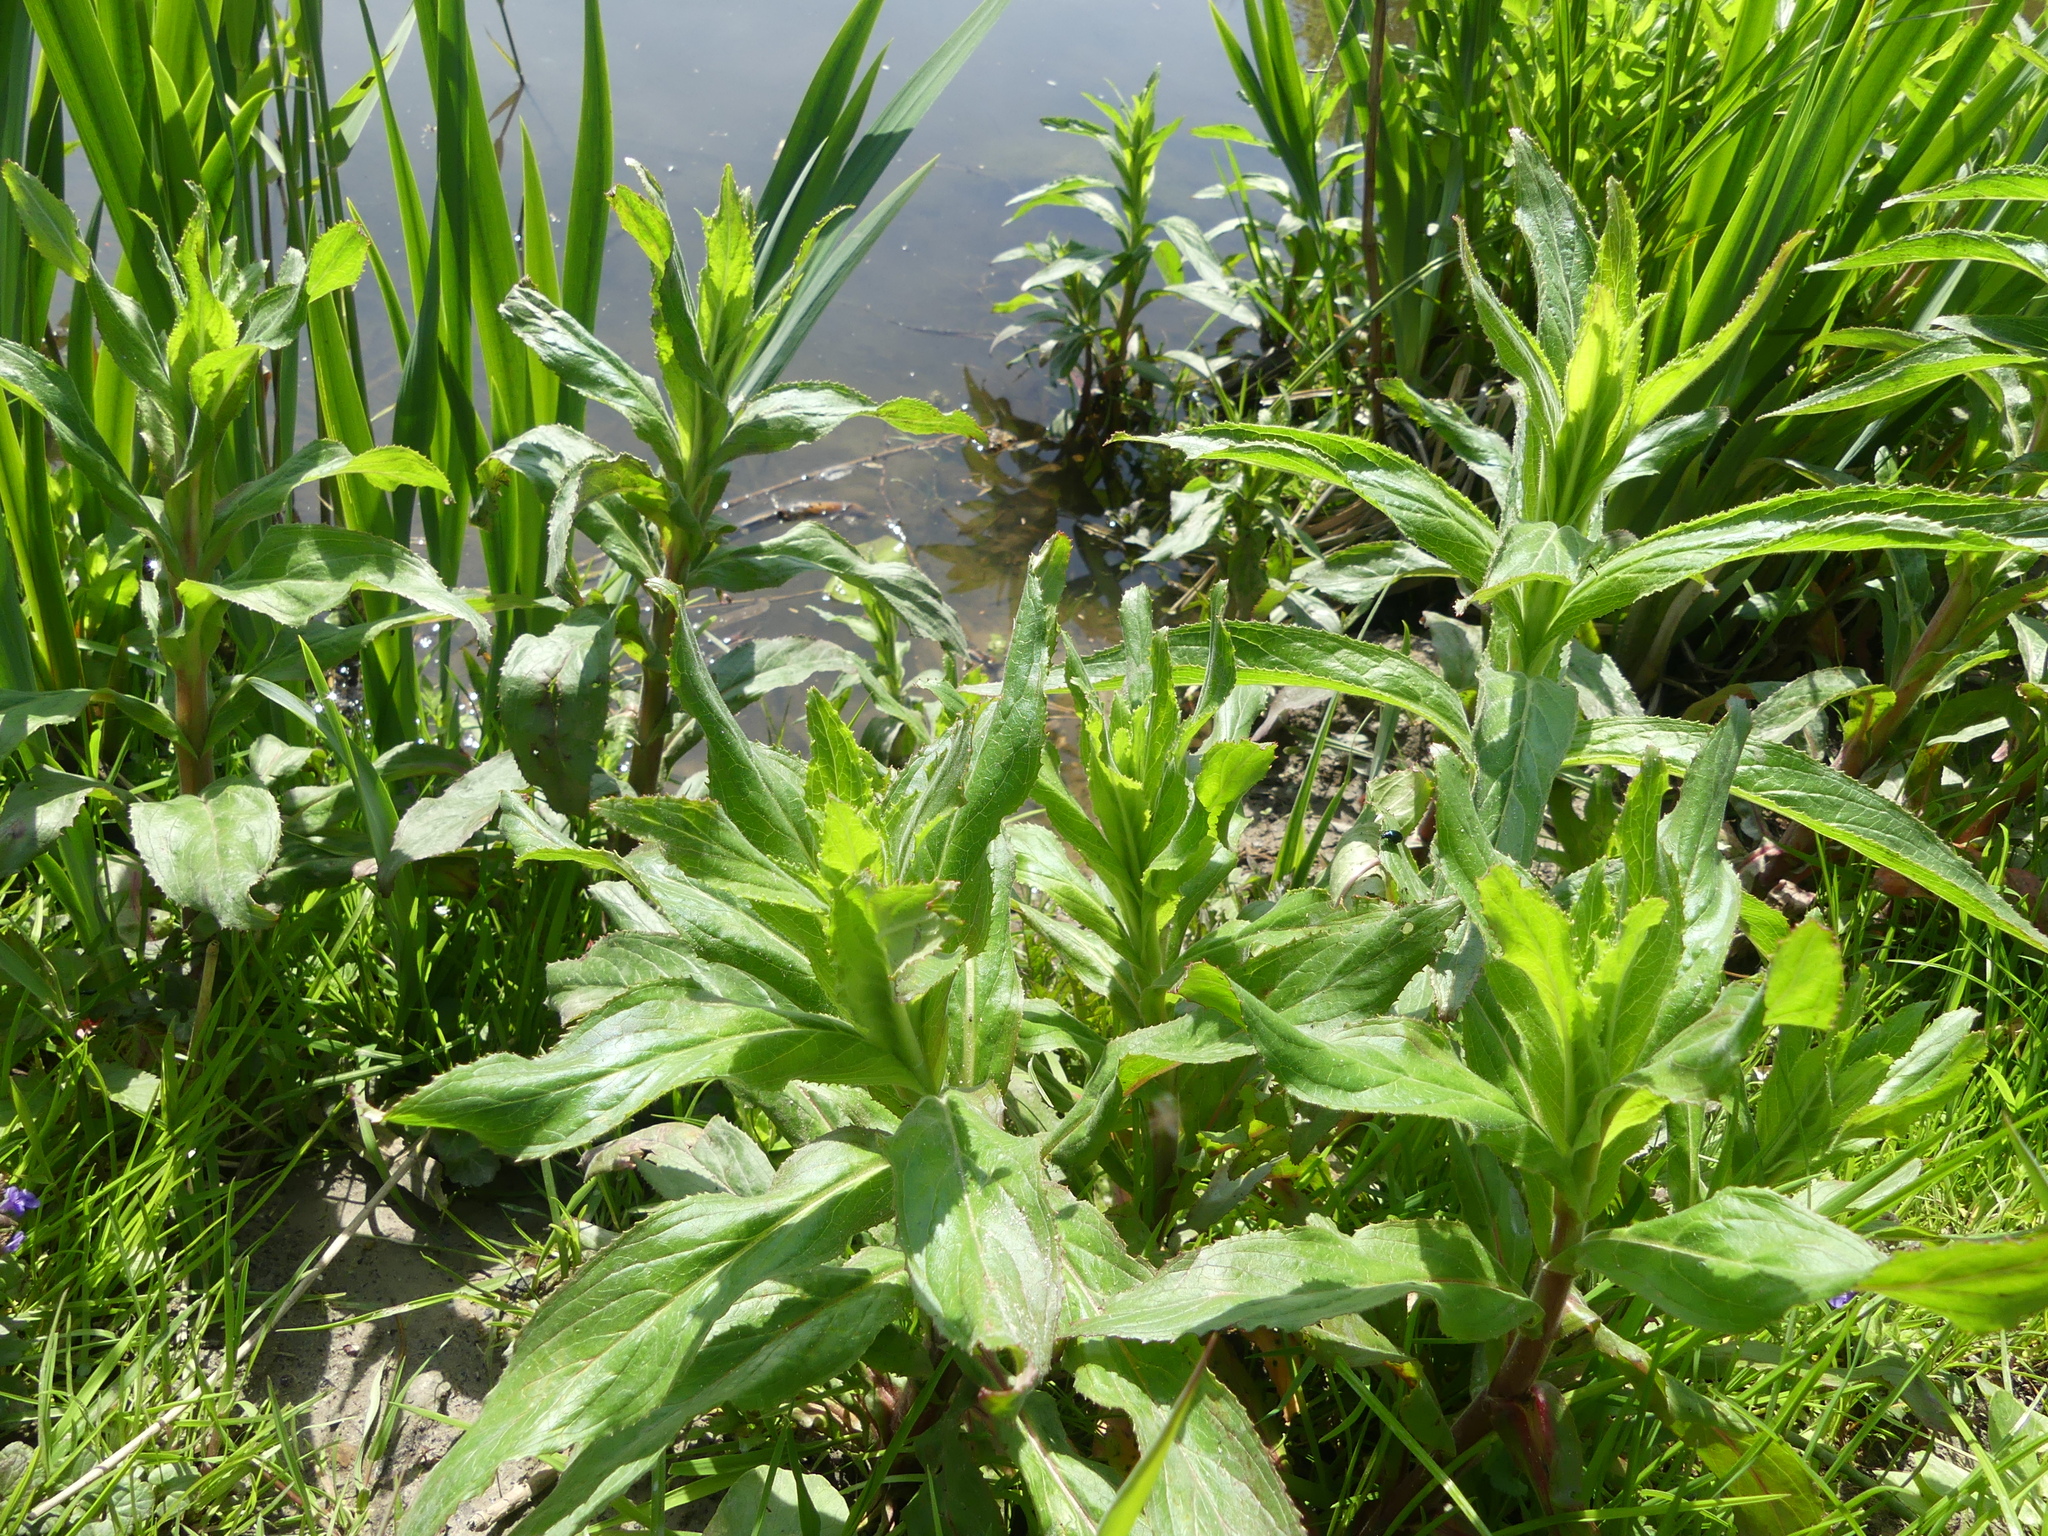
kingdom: Plantae
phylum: Tracheophyta
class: Magnoliopsida
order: Myrtales
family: Onagraceae
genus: Epilobium
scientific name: Epilobium hirsutum
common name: Great willowherb
